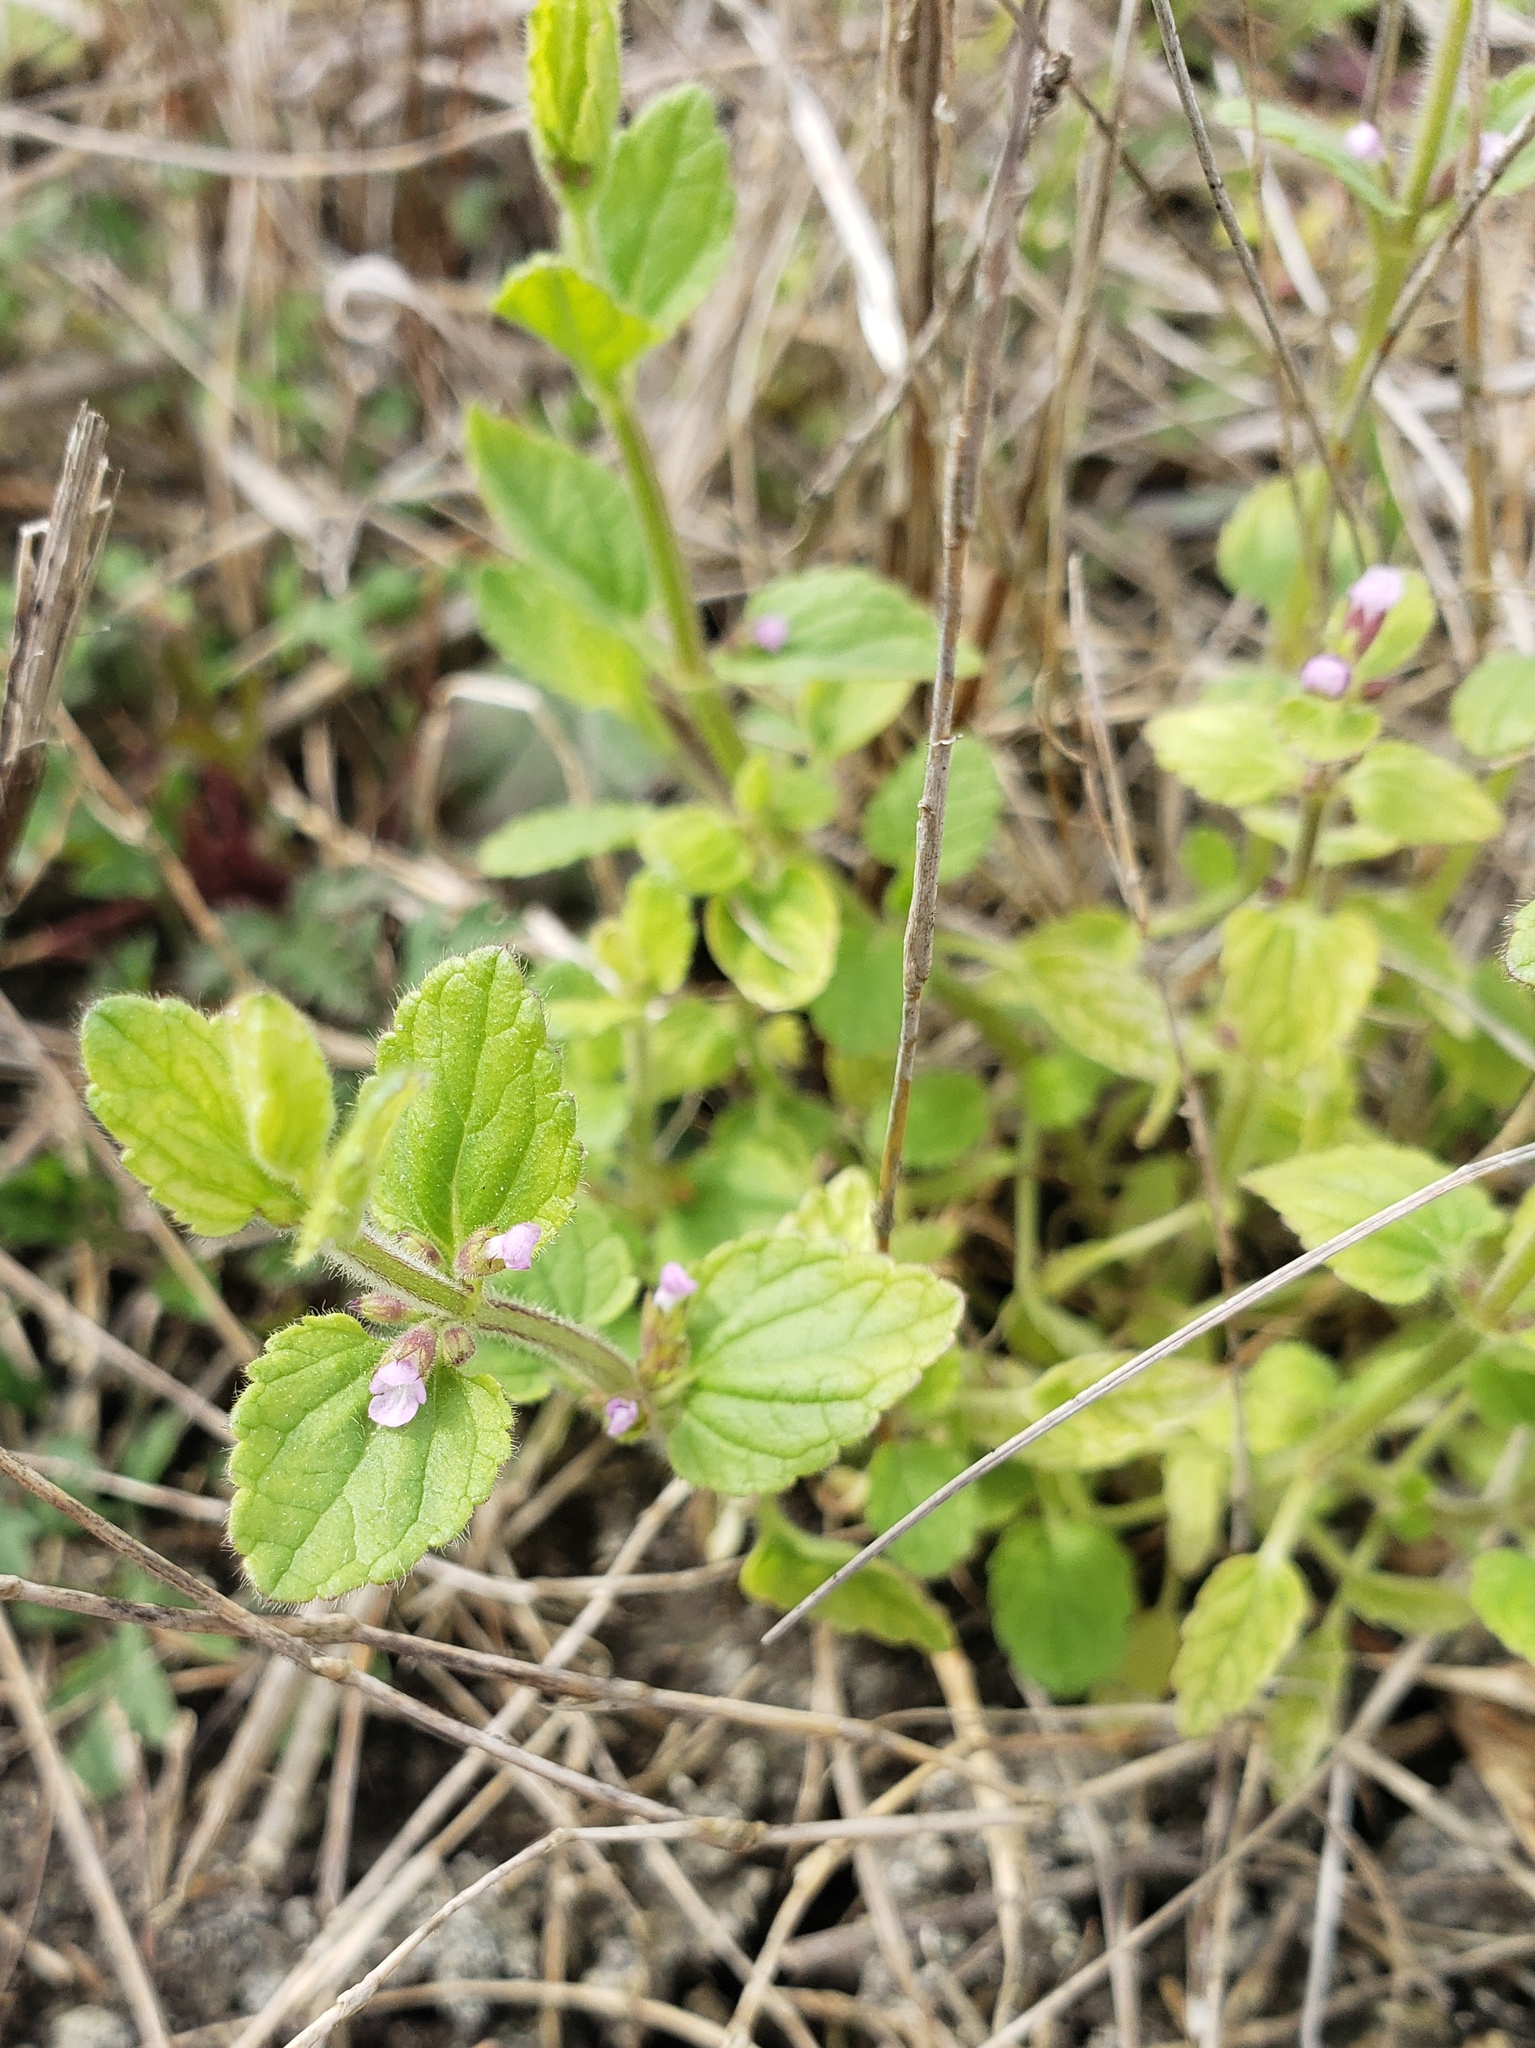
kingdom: Plantae
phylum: Tracheophyta
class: Magnoliopsida
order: Lamiales
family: Lamiaceae
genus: Stachys
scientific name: Stachys
